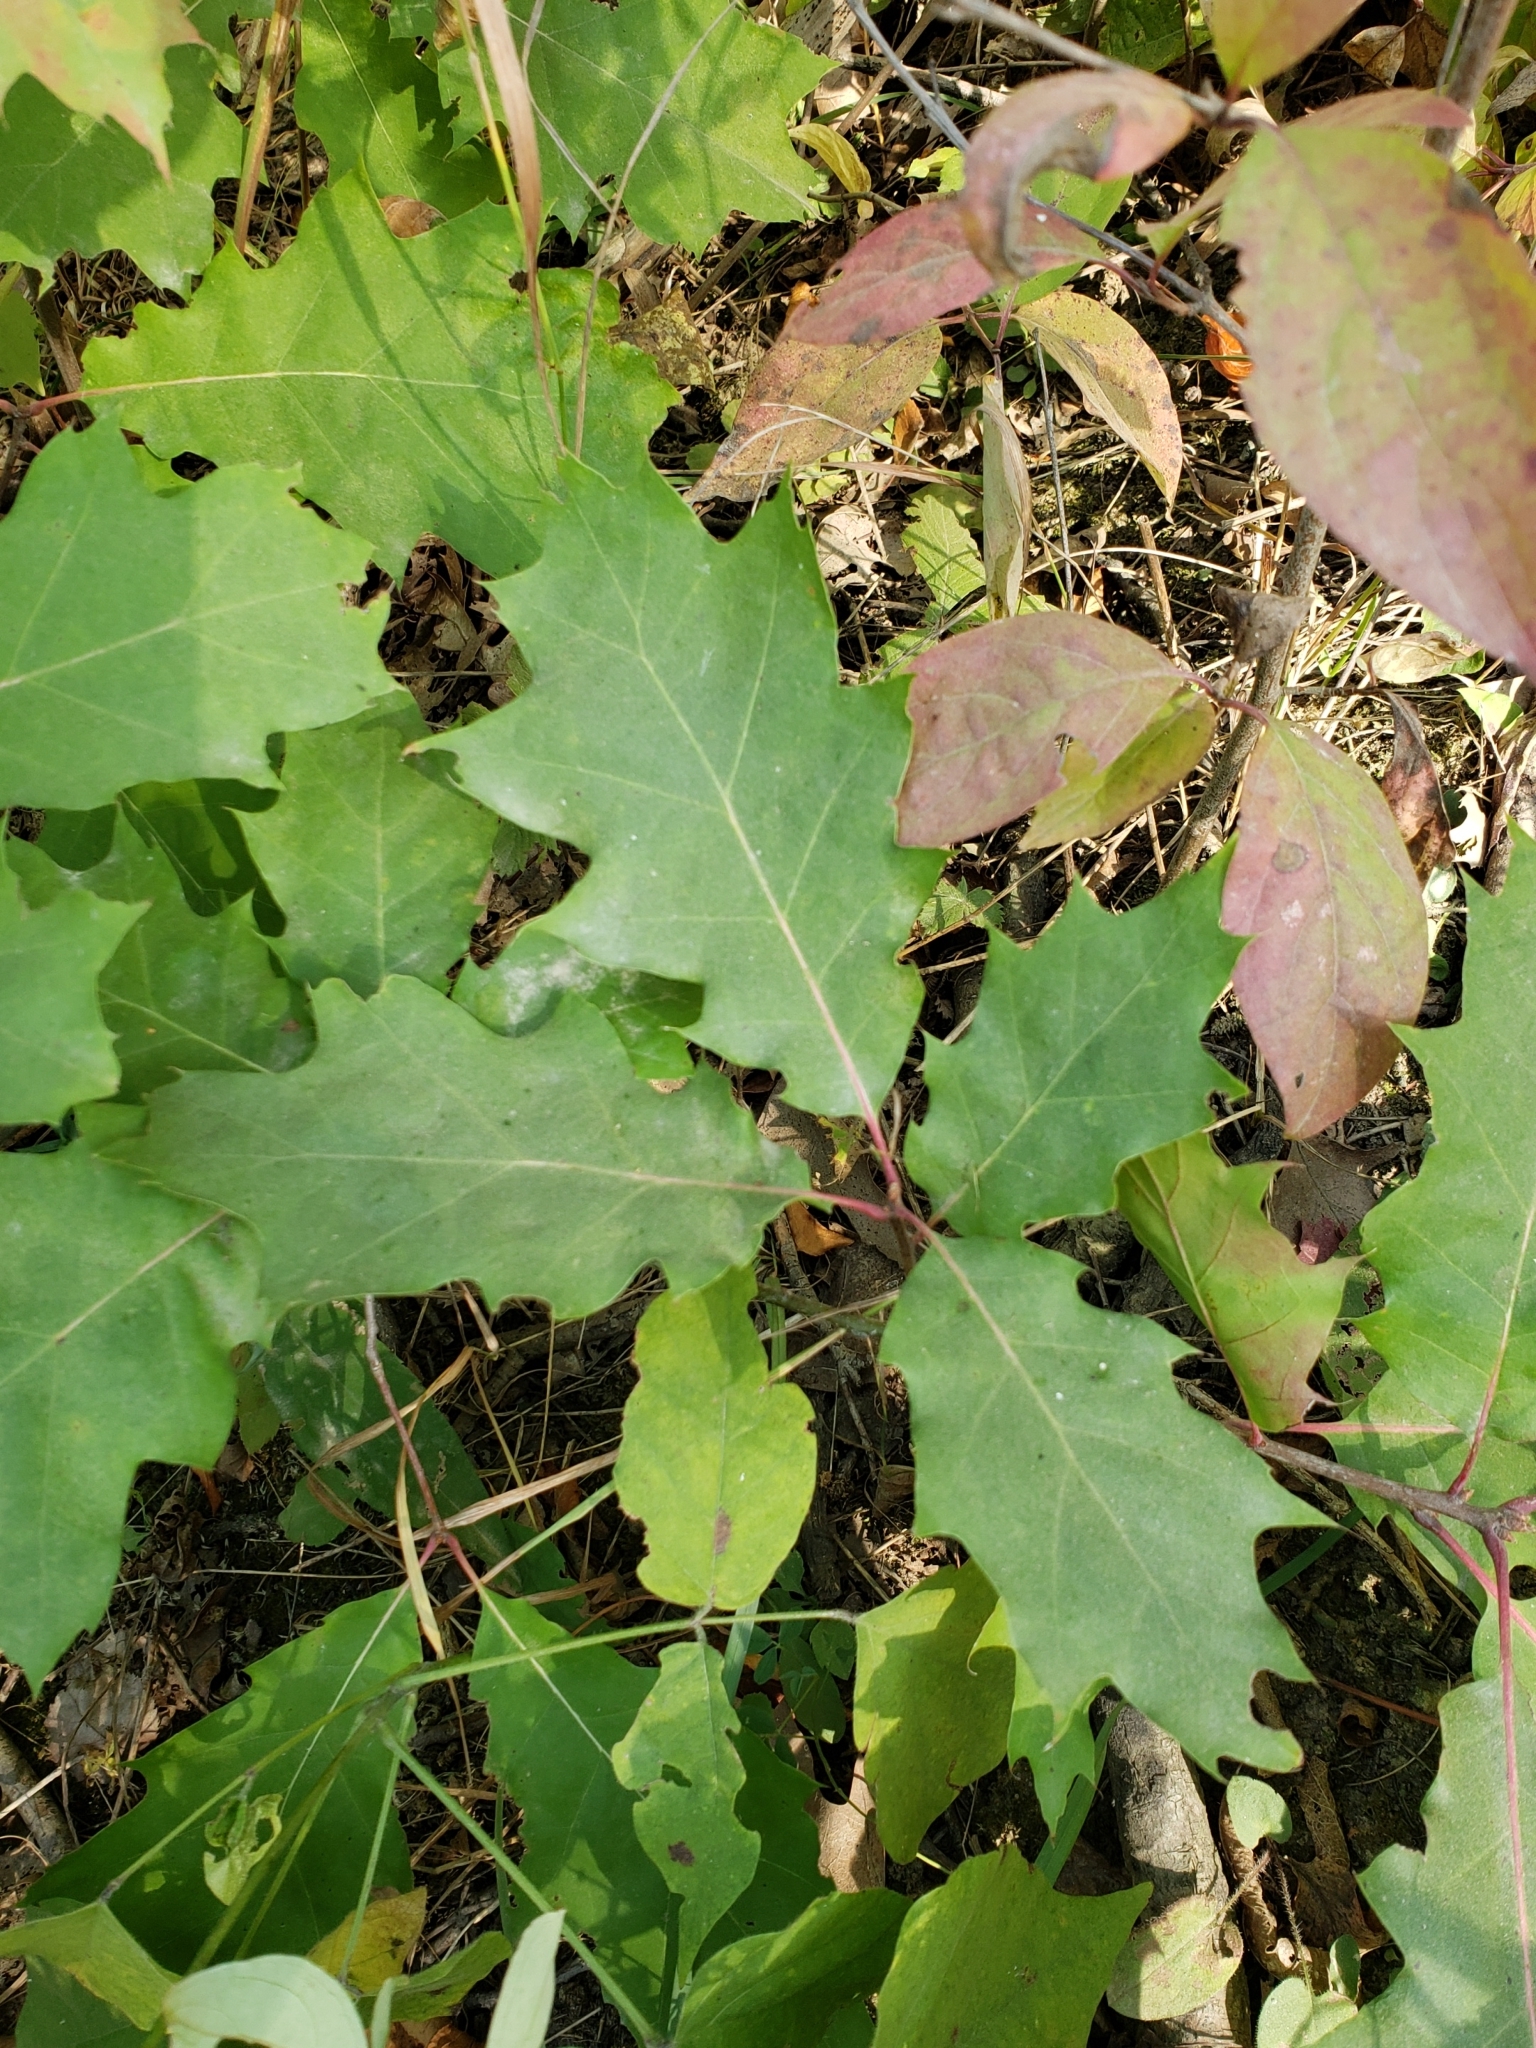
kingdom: Plantae
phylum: Tracheophyta
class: Magnoliopsida
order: Fagales
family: Fagaceae
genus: Quercus
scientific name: Quercus rubra
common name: Red oak
